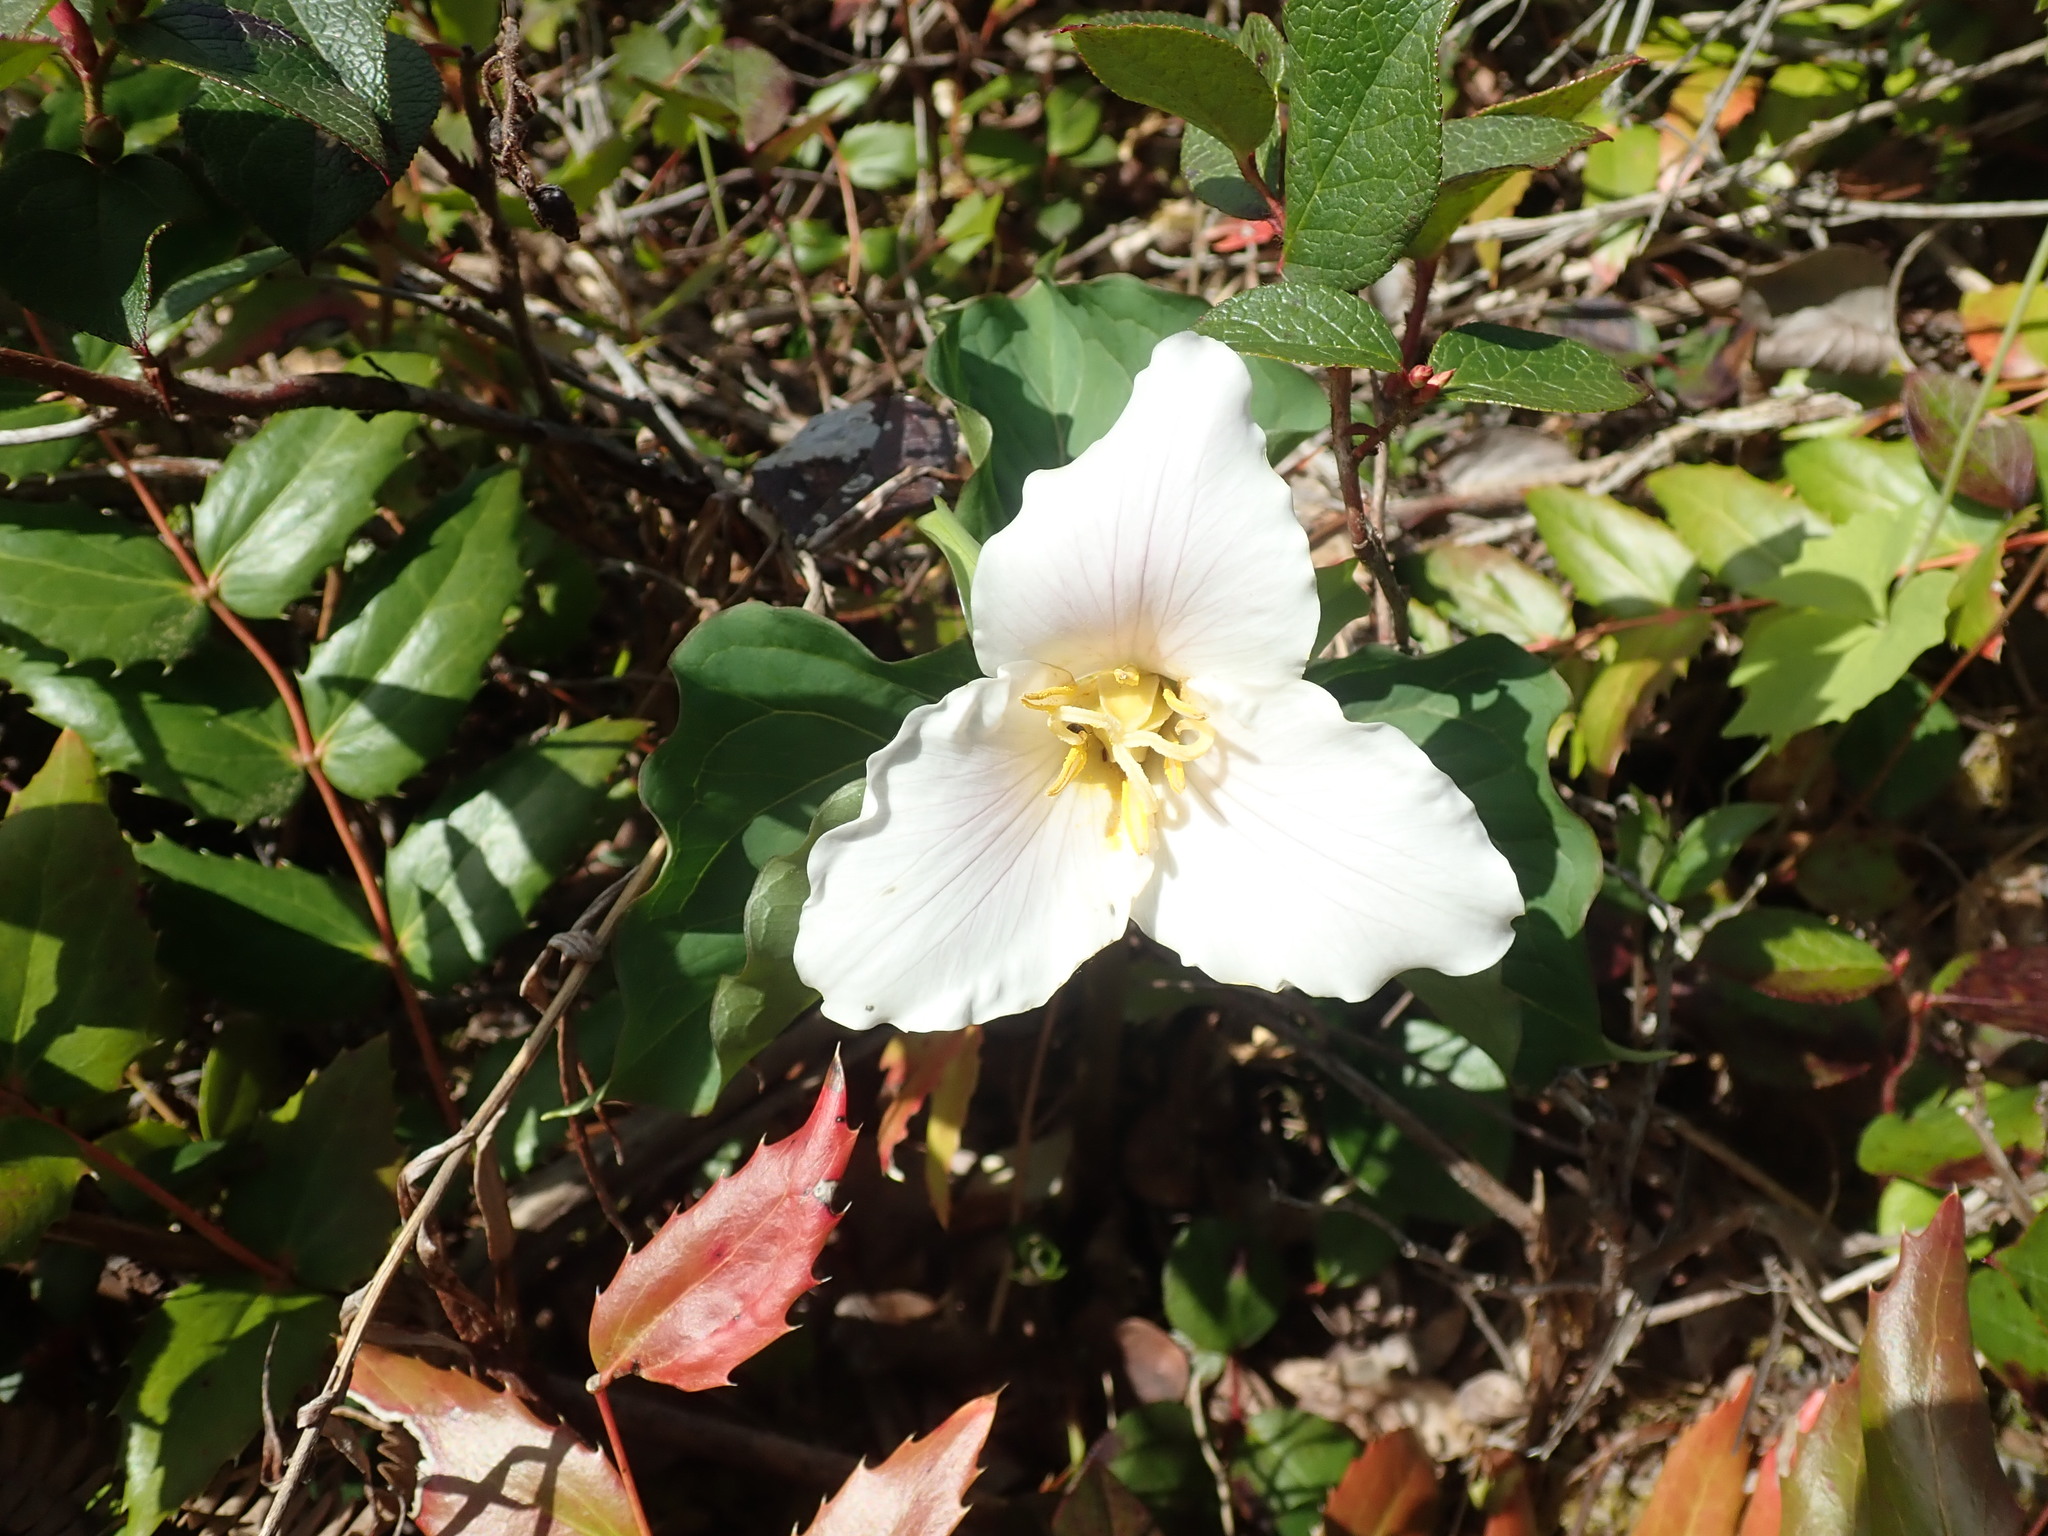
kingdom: Plantae
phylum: Tracheophyta
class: Liliopsida
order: Liliales
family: Melanthiaceae
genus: Trillium
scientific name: Trillium ovatum
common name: Pacific trillium
